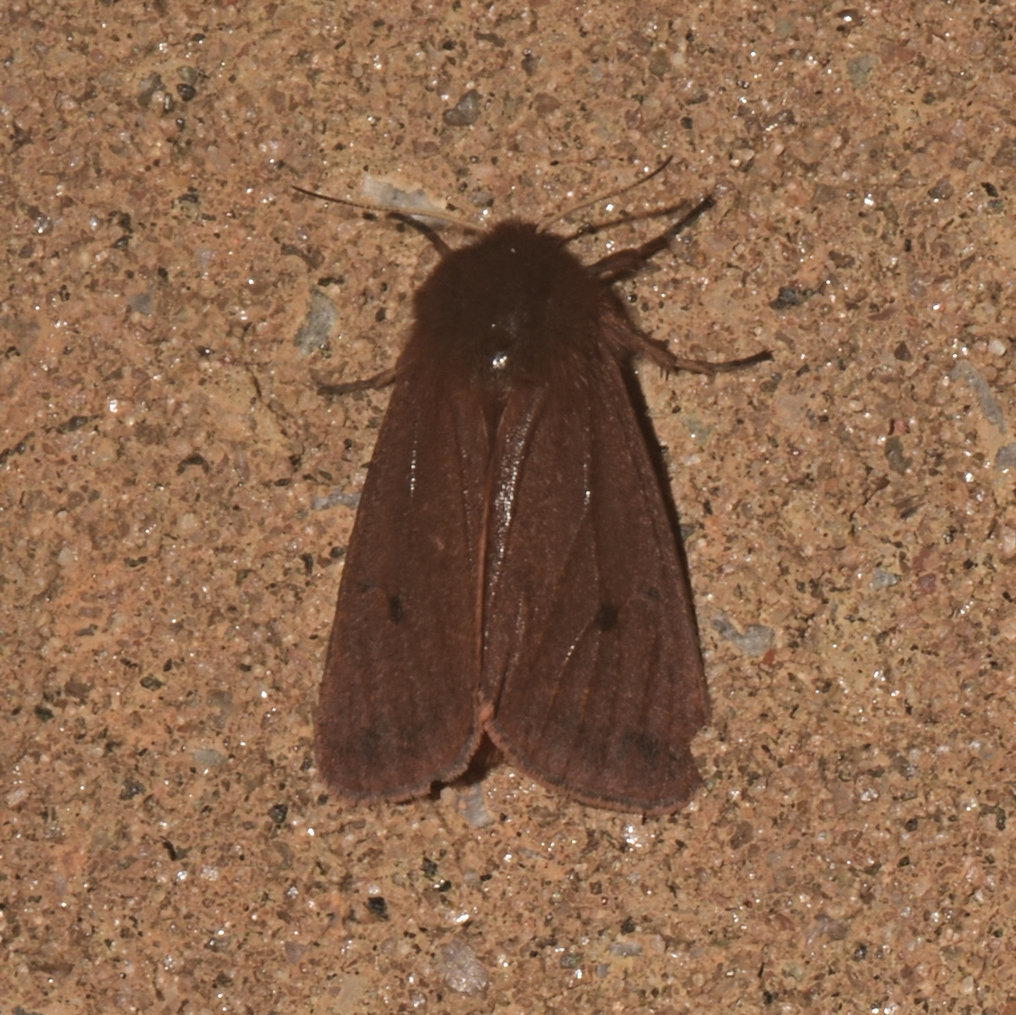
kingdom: Animalia
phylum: Arthropoda
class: Insecta
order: Lepidoptera
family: Erebidae
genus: Phragmatobia
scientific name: Phragmatobia fuliginosa
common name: Ruby tiger
